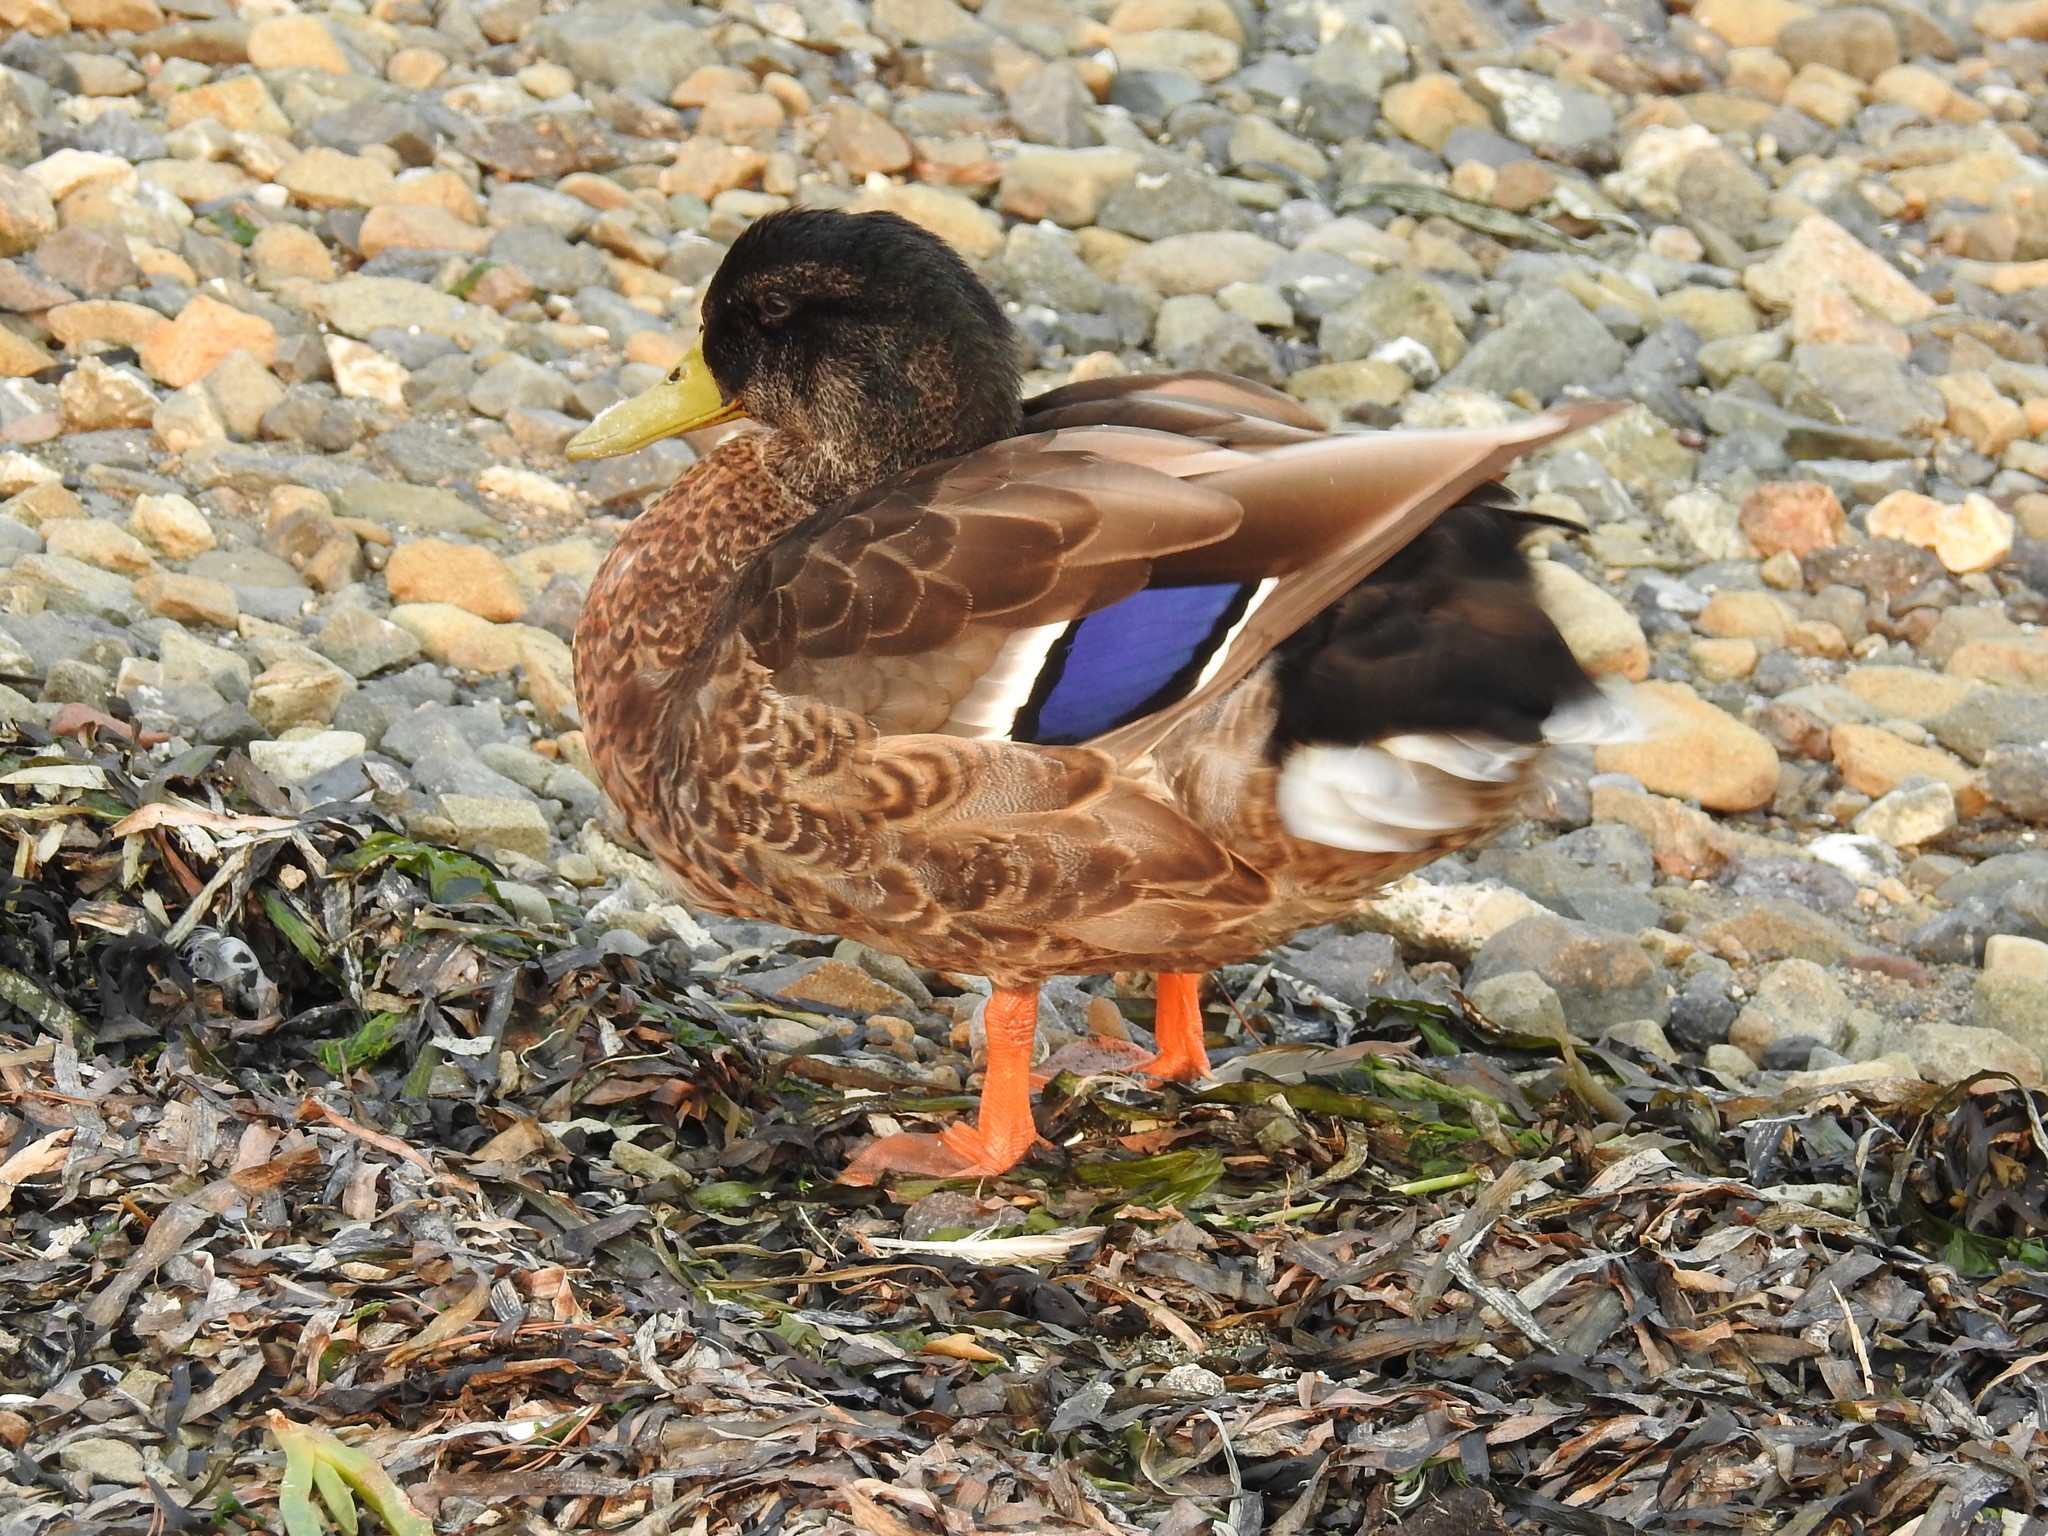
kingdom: Animalia
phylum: Chordata
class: Aves
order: Anseriformes
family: Anatidae
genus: Anas
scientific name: Anas platyrhynchos
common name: Mallard
